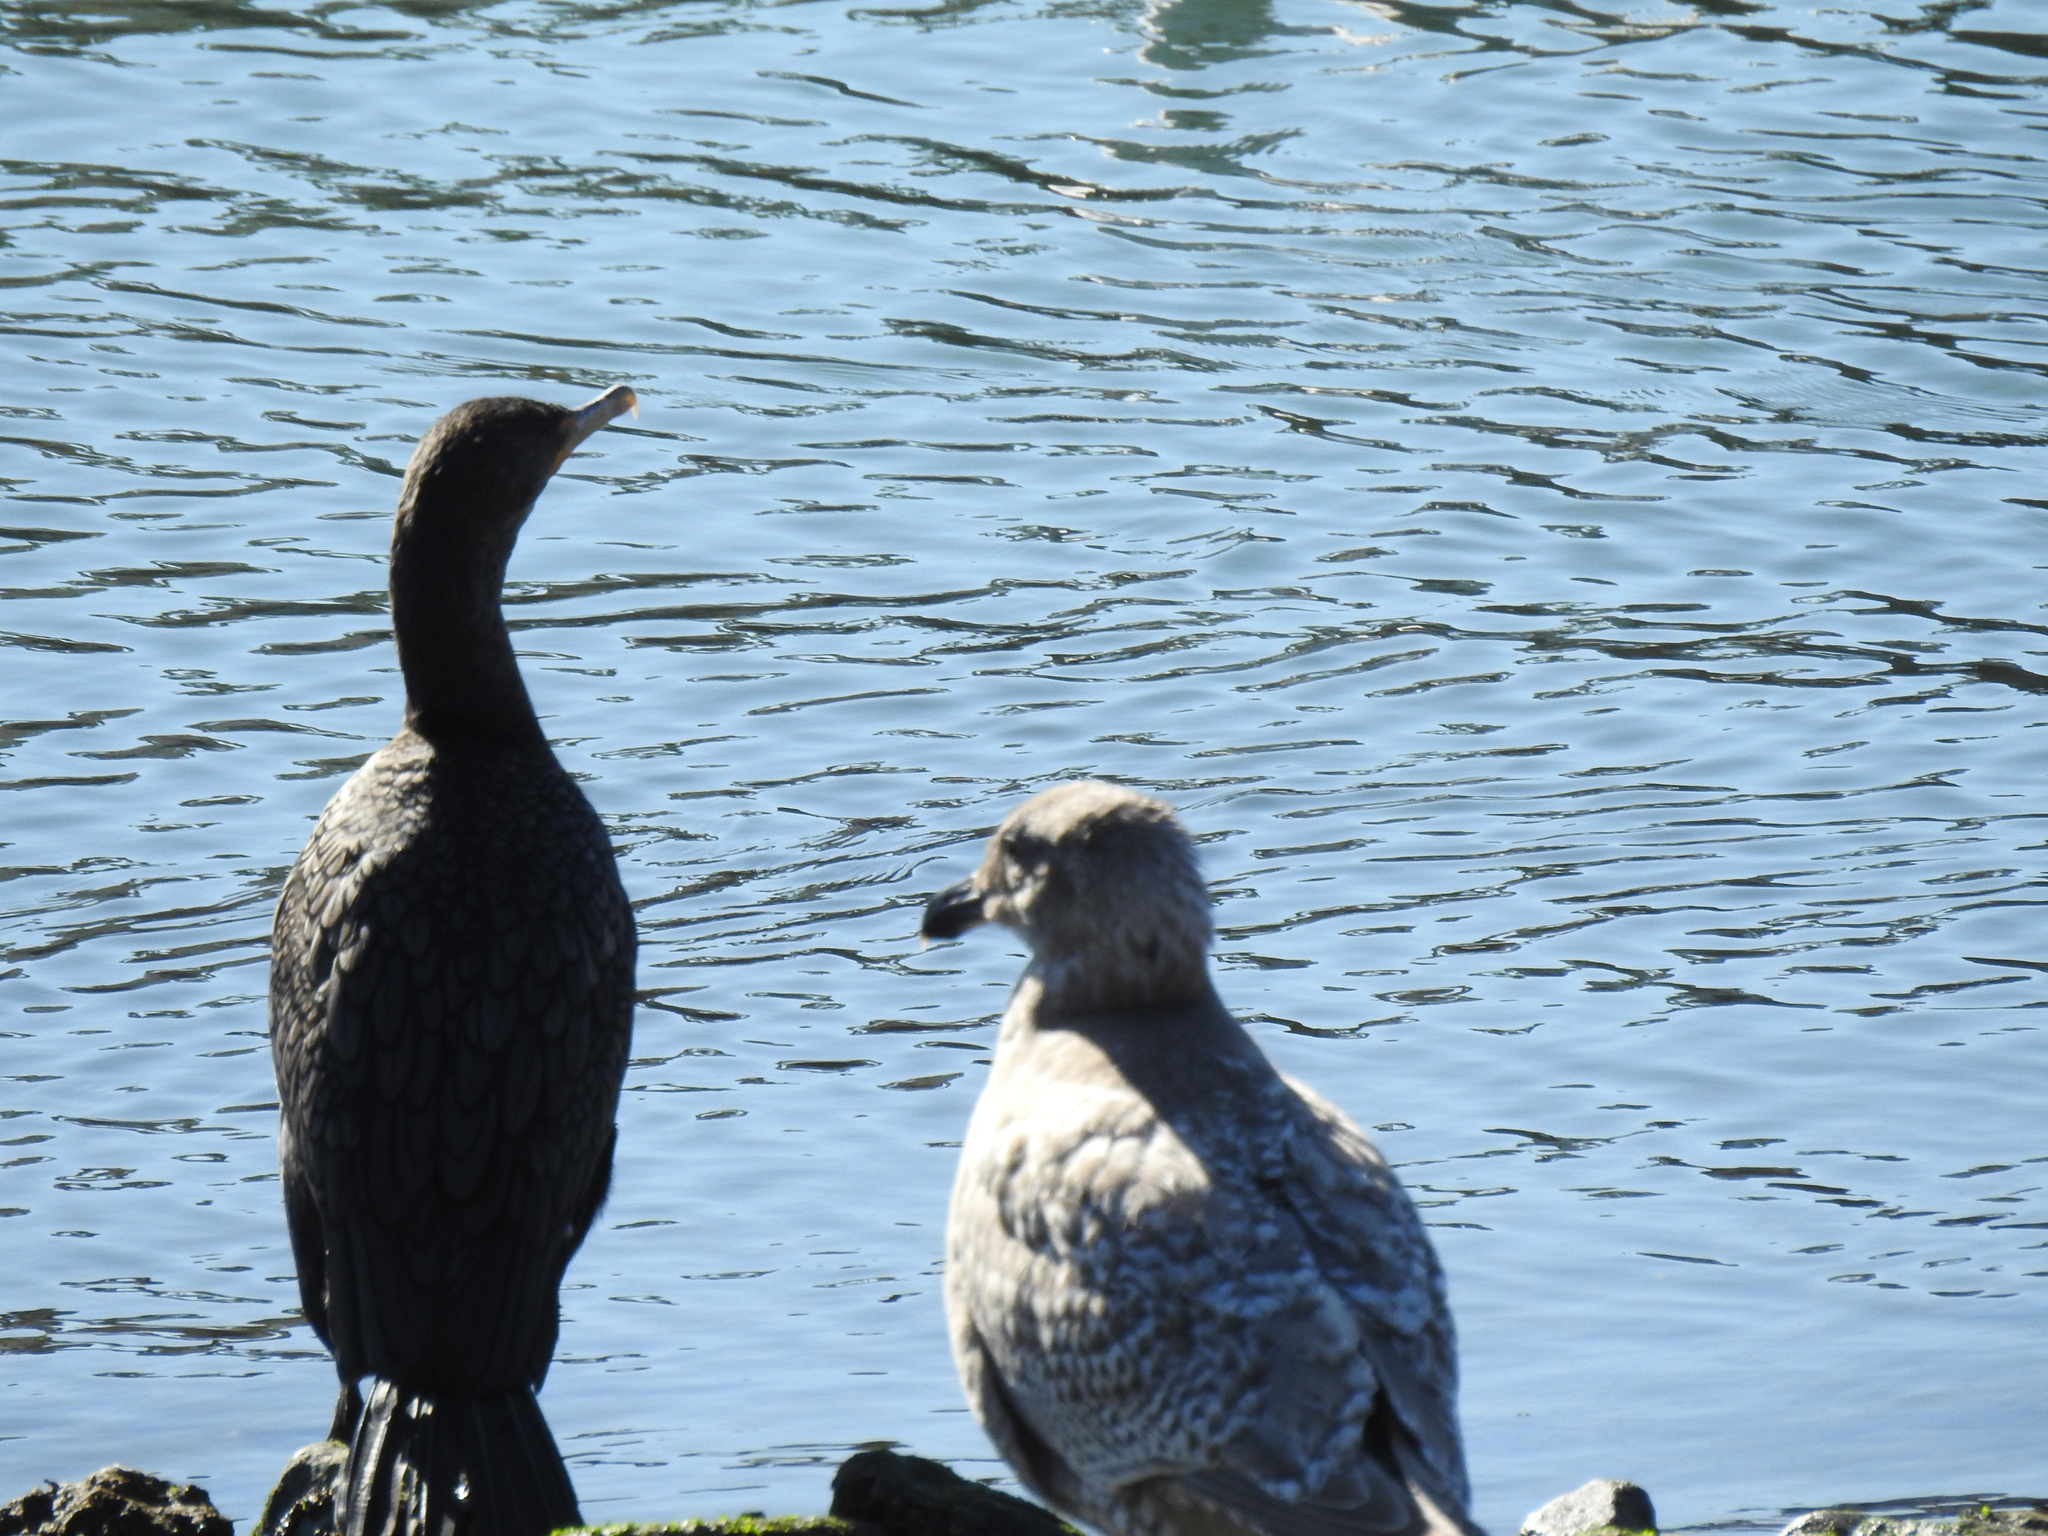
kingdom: Animalia
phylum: Chordata
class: Aves
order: Suliformes
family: Phalacrocoracidae
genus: Phalacrocorax
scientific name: Phalacrocorax auritus
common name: Double-crested cormorant
